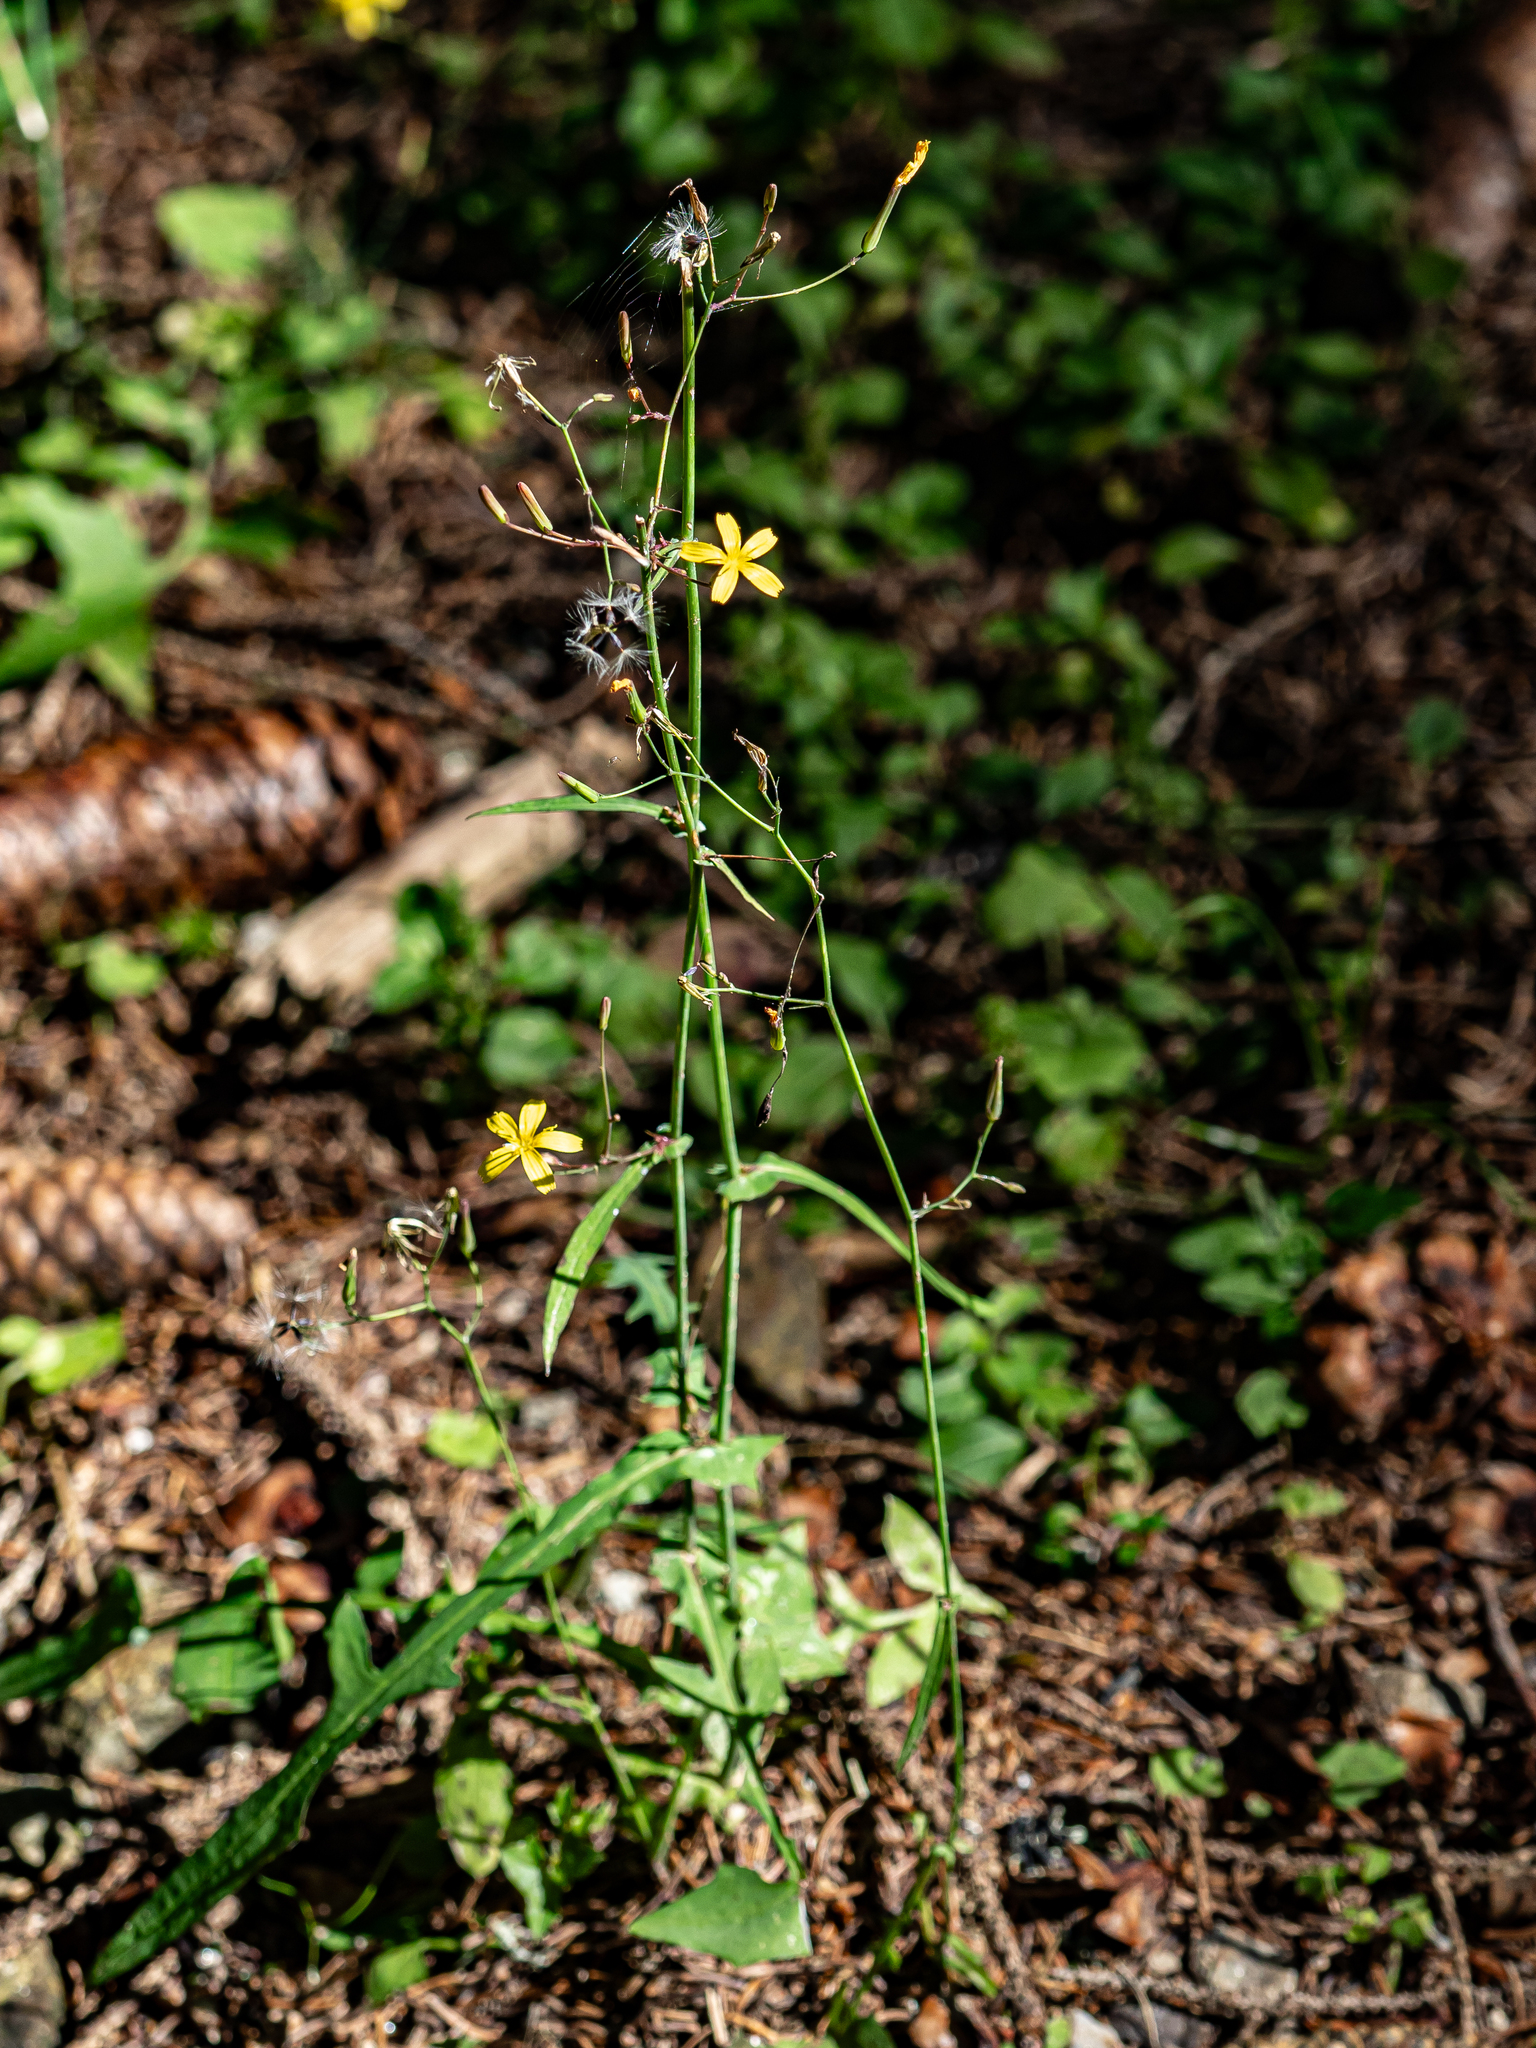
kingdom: Plantae
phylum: Tracheophyta
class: Magnoliopsida
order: Asterales
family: Asteraceae
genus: Mycelis
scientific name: Mycelis muralis
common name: Wall lettuce
